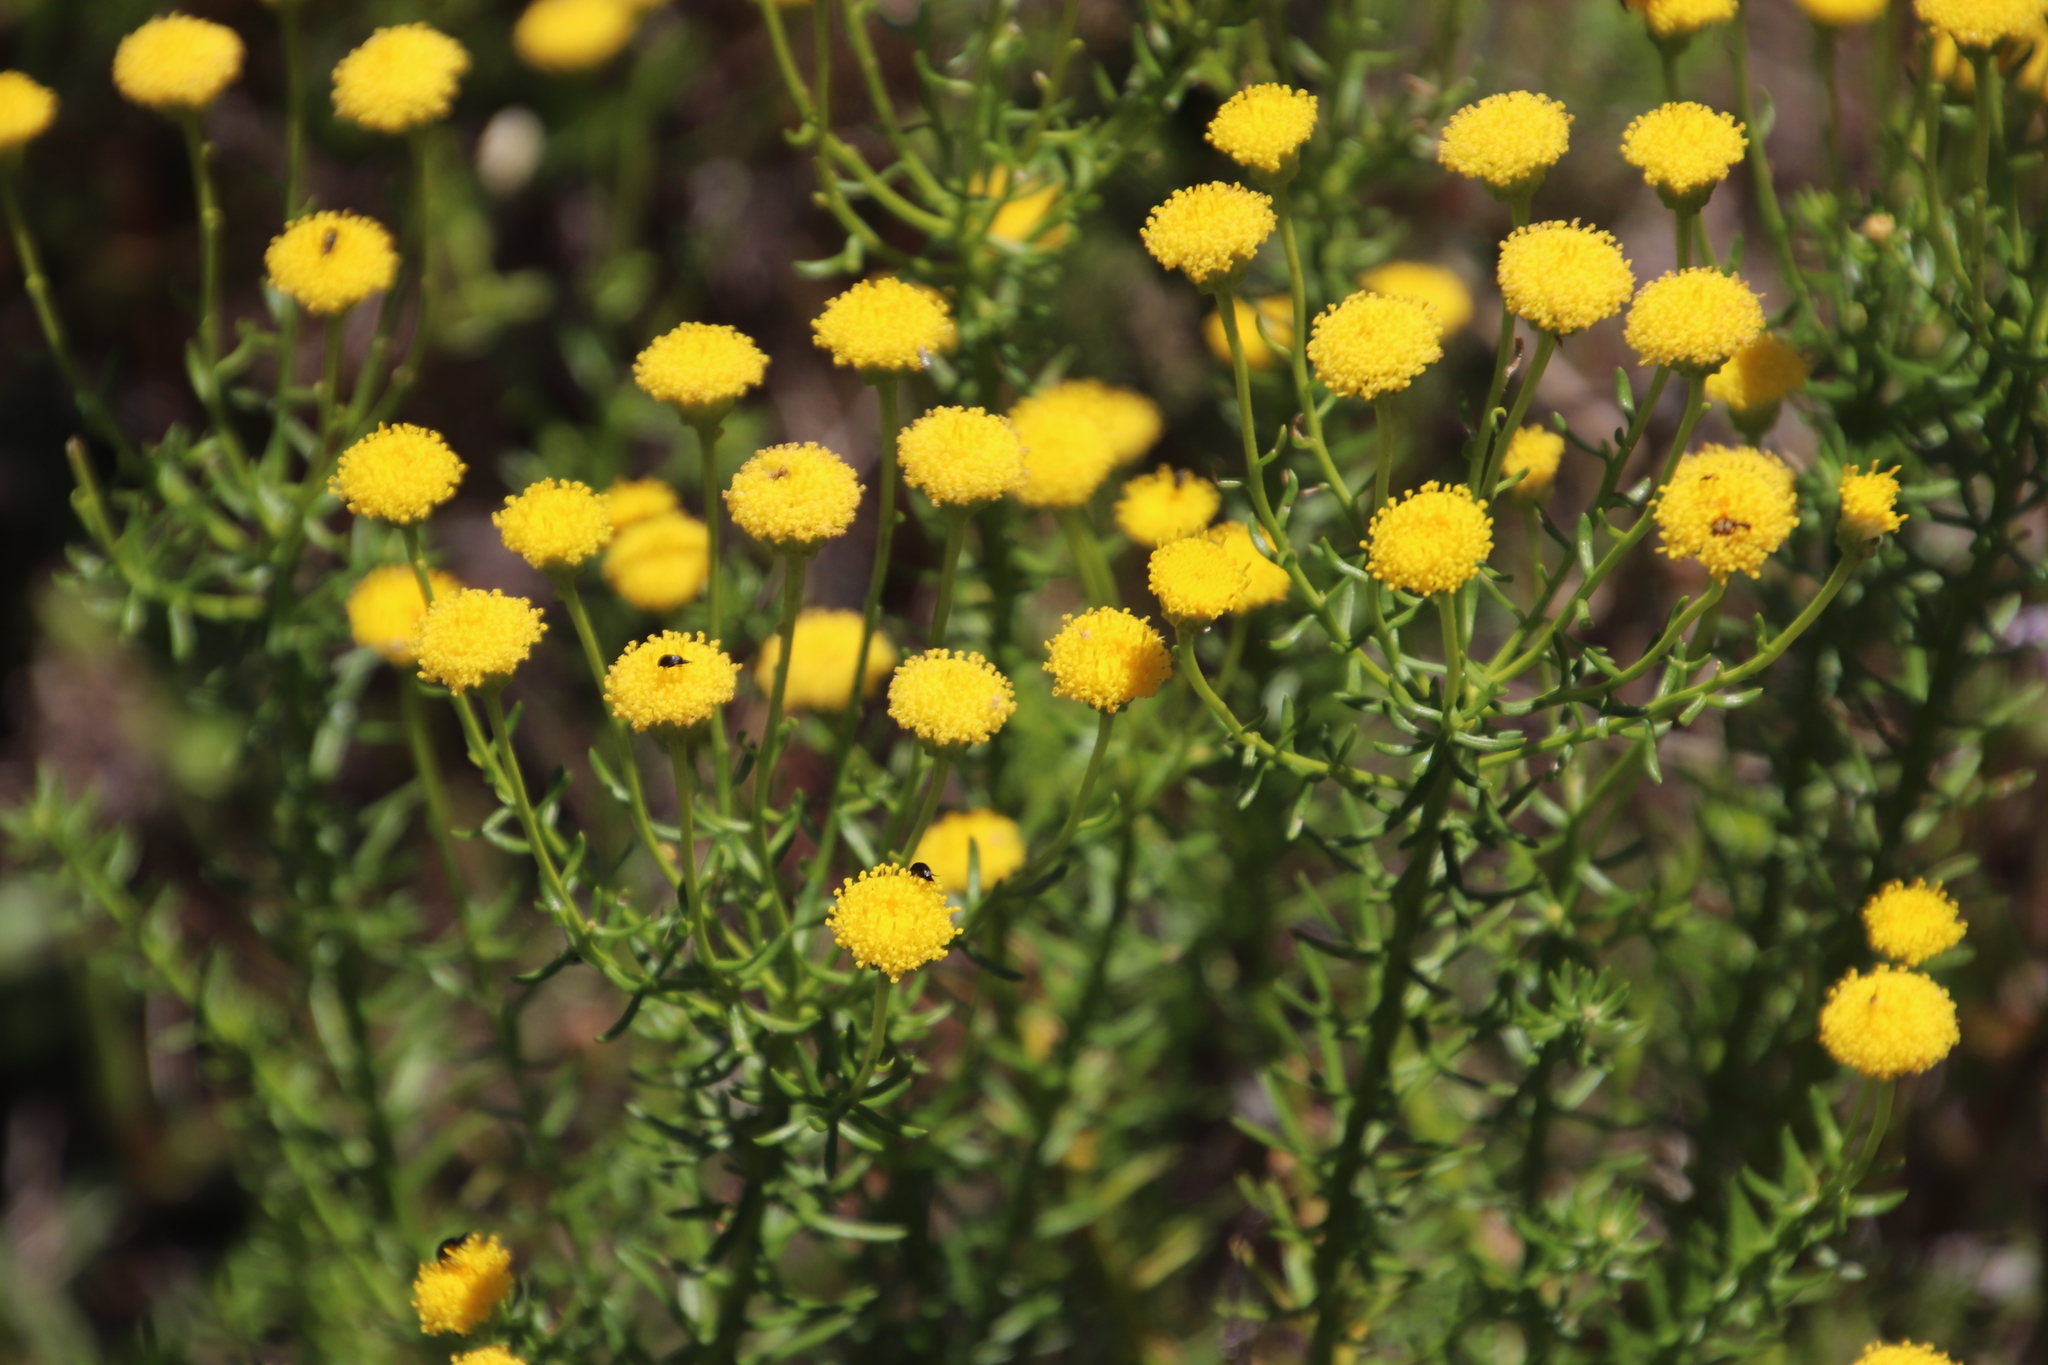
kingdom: Plantae
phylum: Tracheophyta
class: Magnoliopsida
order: Asterales
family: Asteraceae
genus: Chrysocoma
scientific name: Chrysocoma cernua
